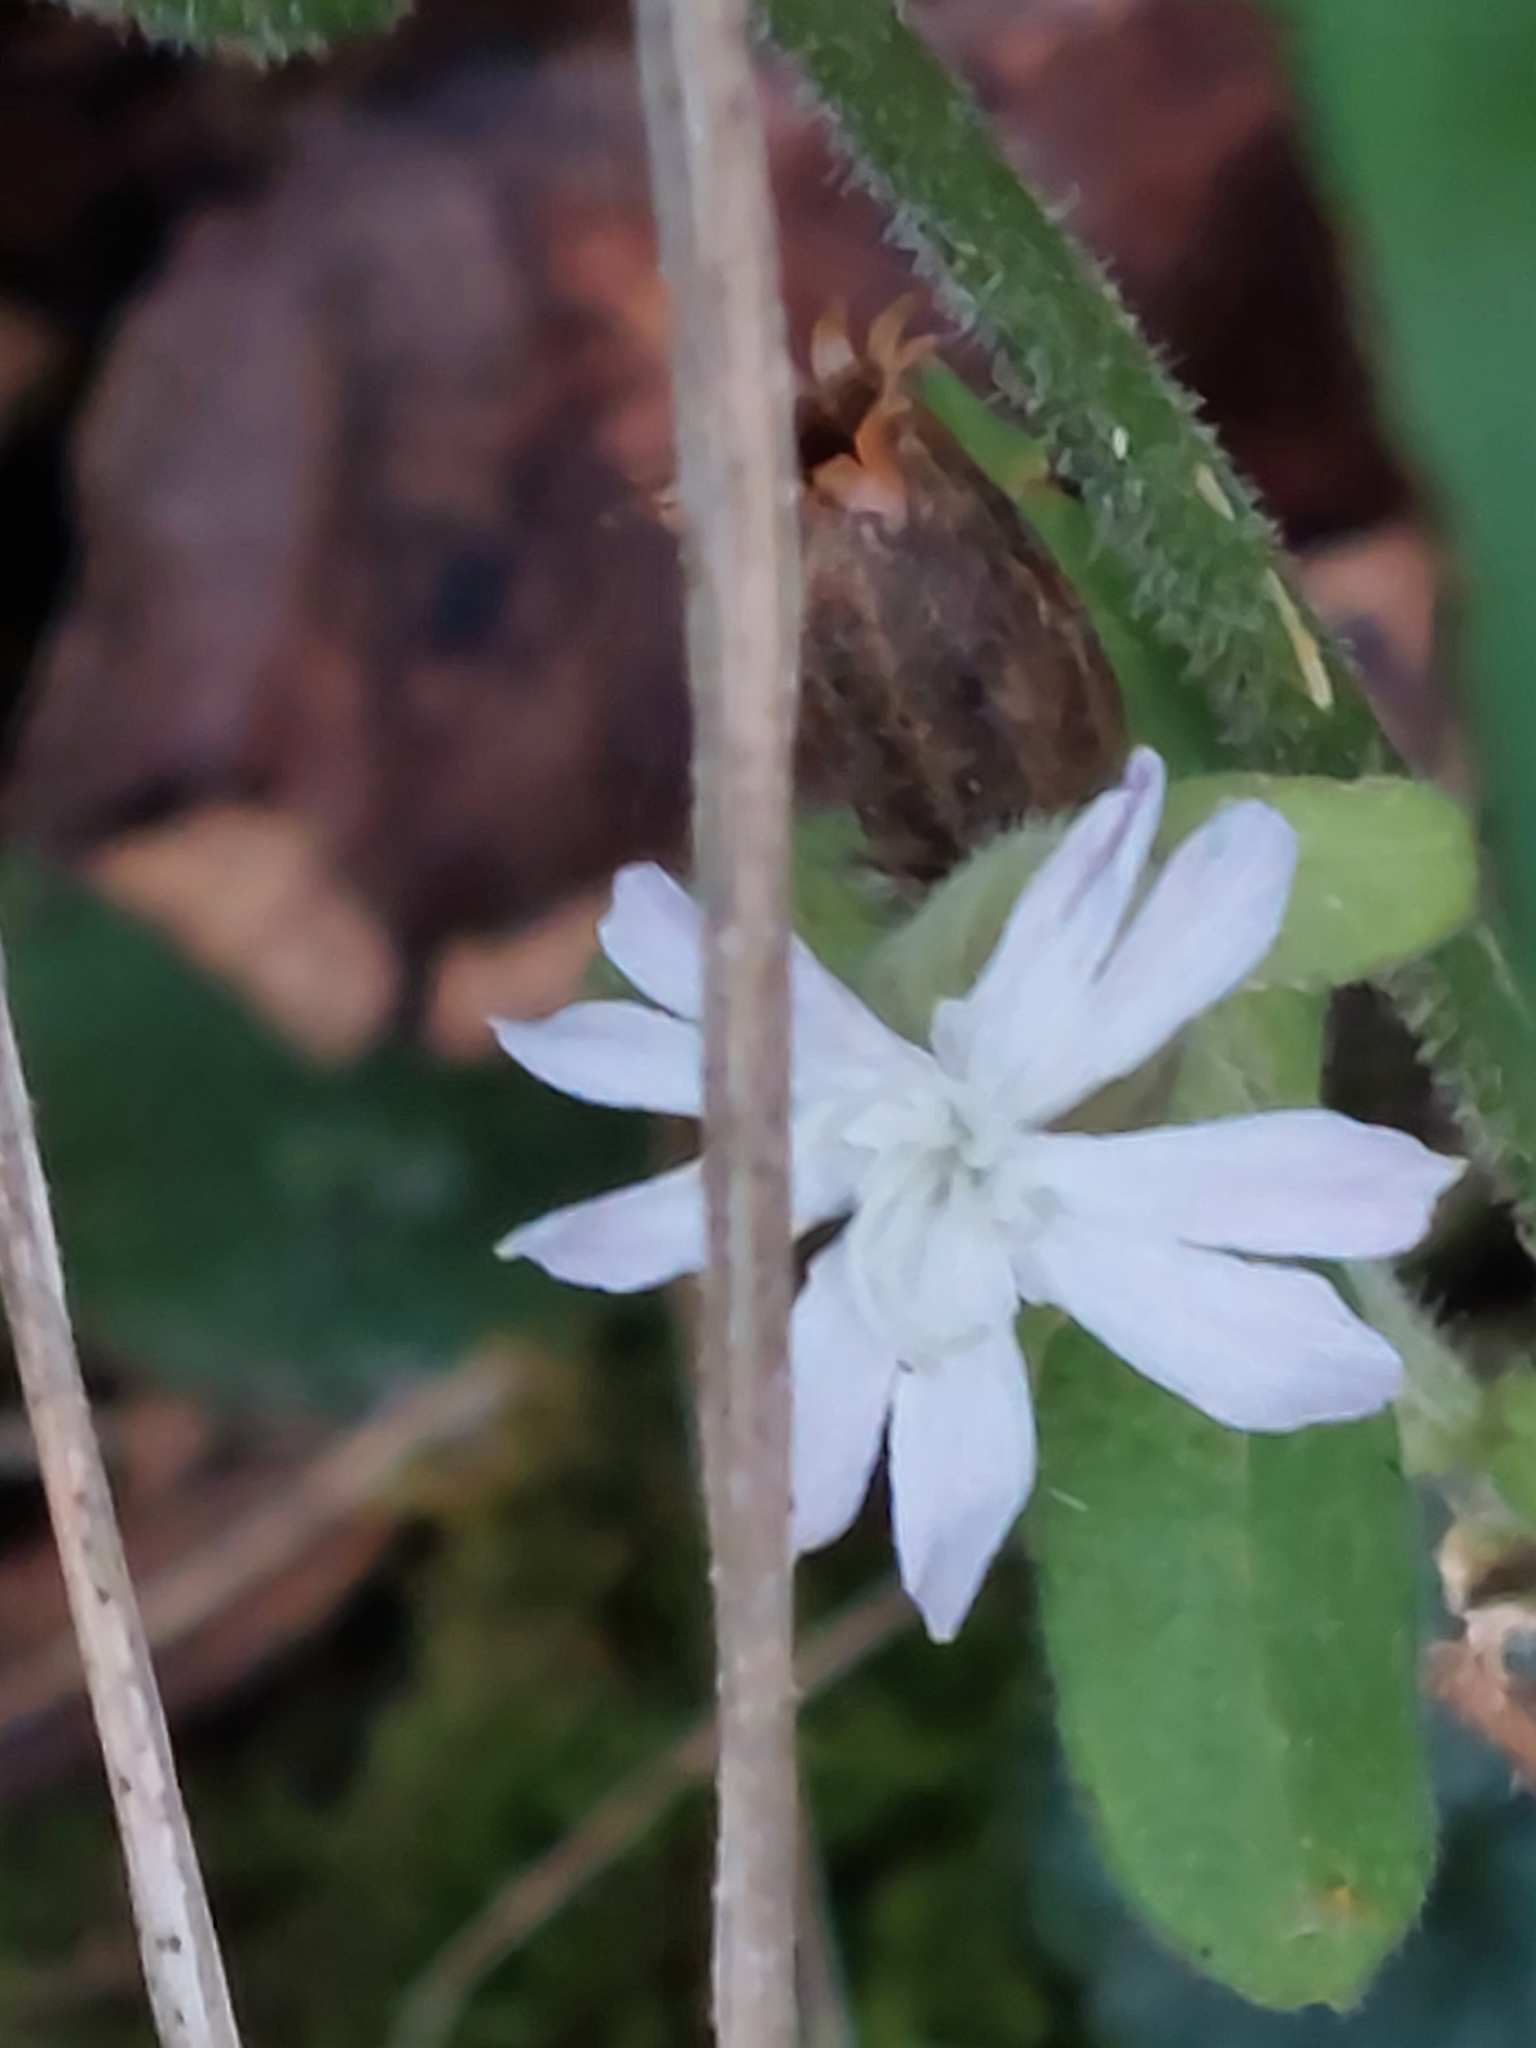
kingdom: Plantae
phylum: Tracheophyta
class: Magnoliopsida
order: Caryophyllales
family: Caryophyllaceae
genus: Silene
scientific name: Silene latifolia
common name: White campion
